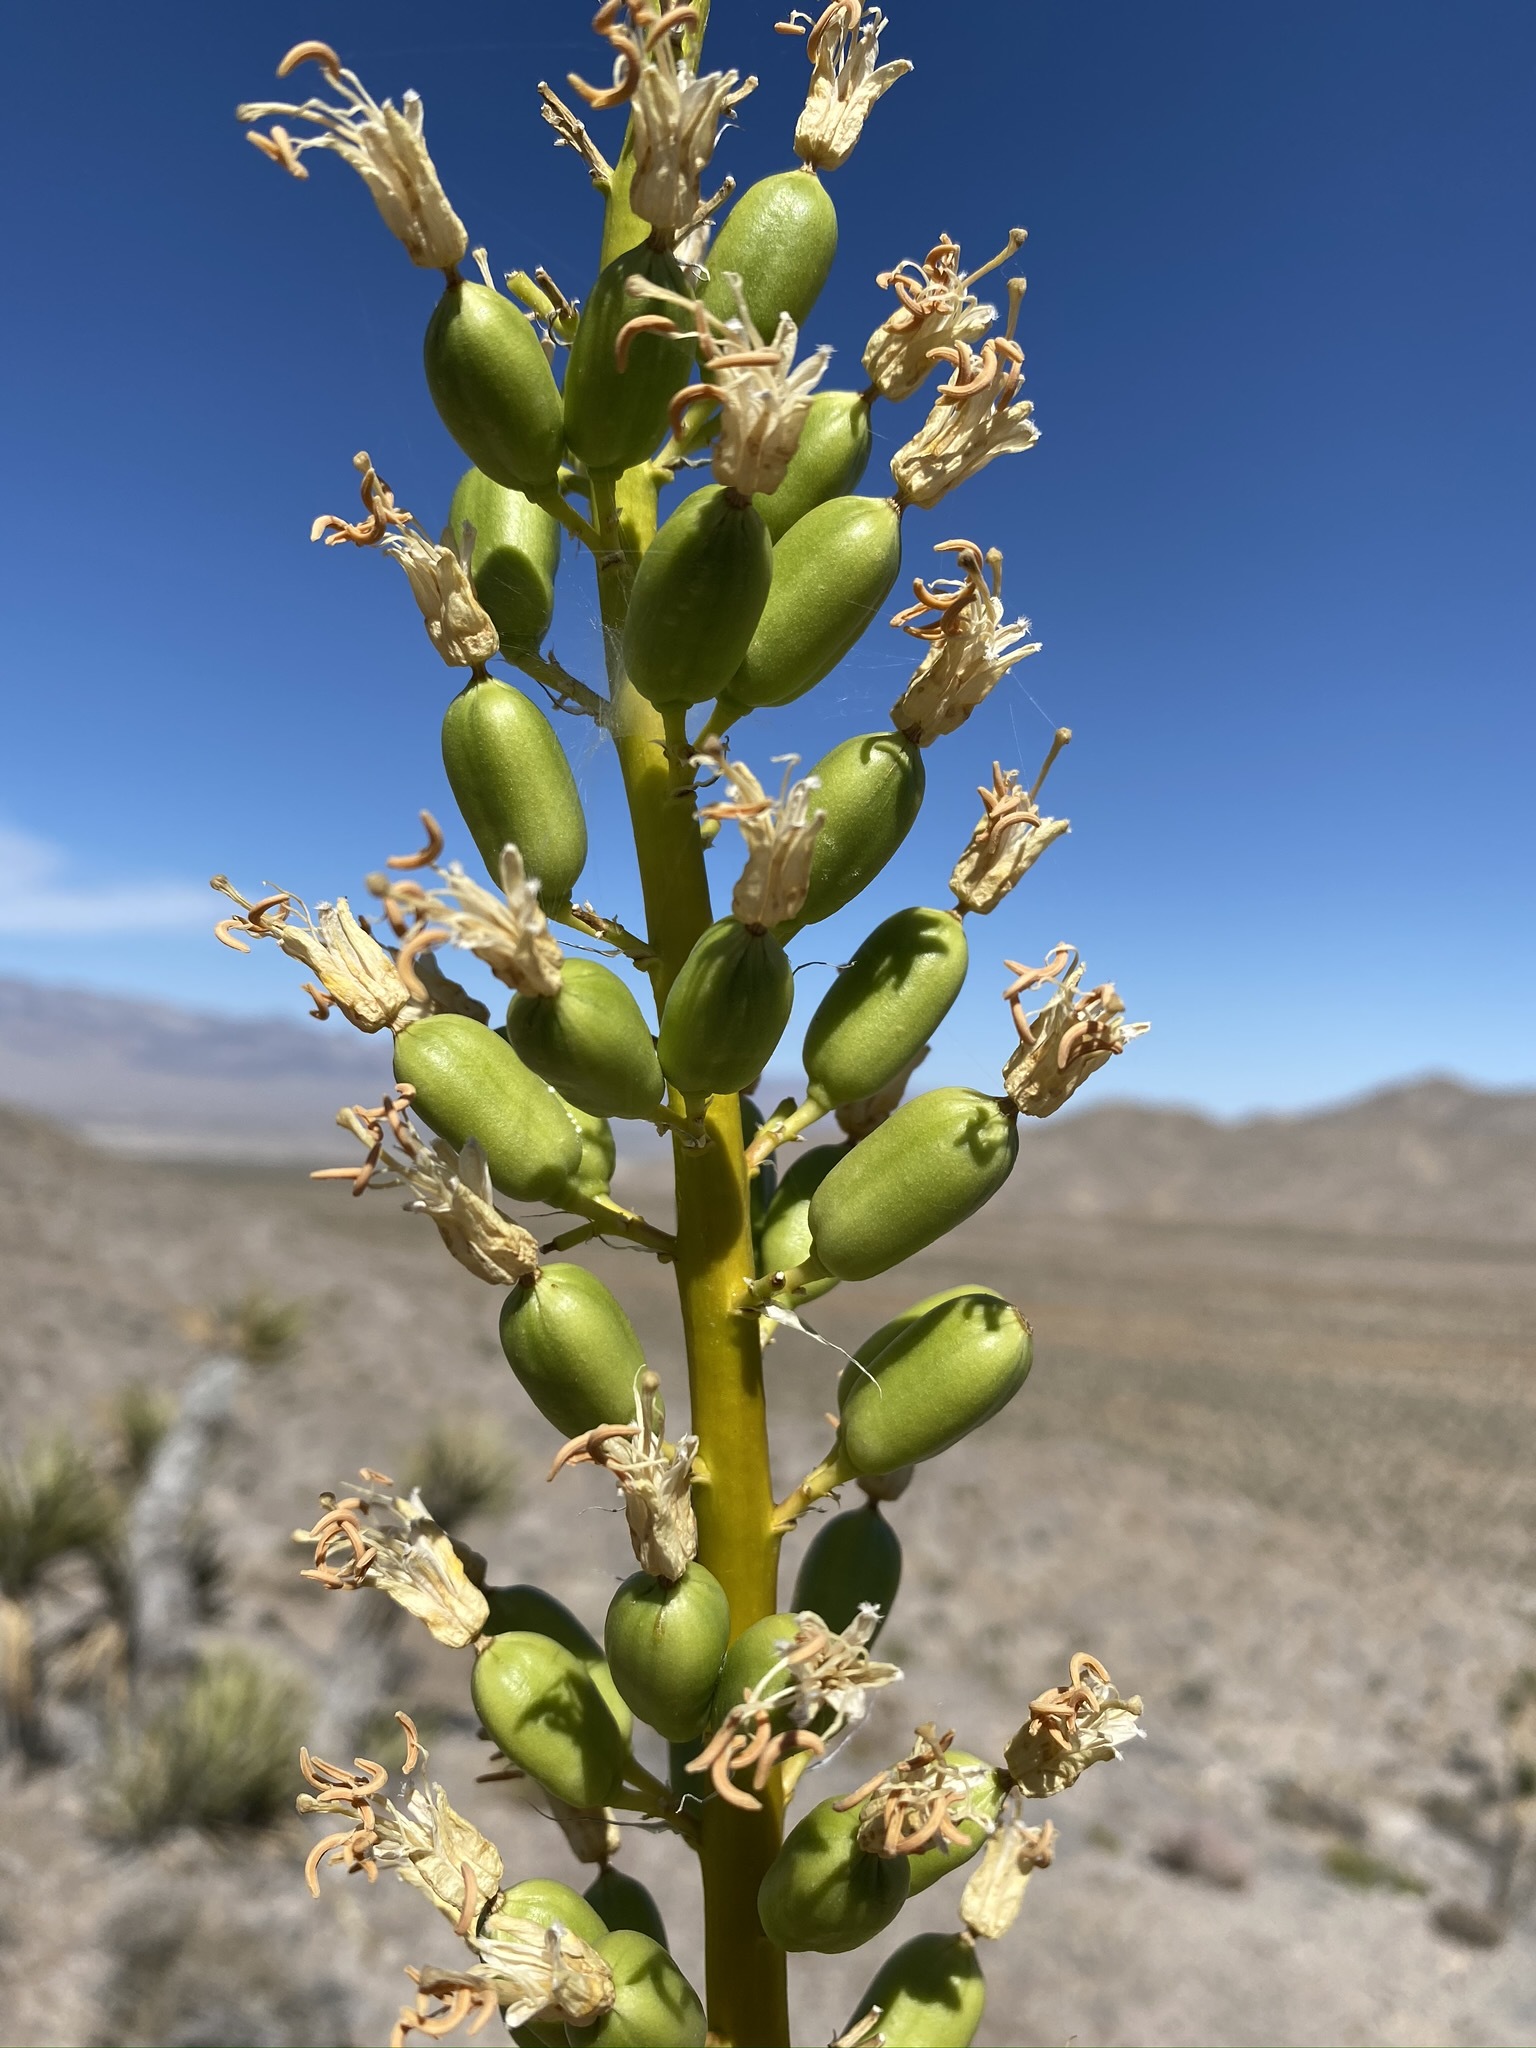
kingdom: Plantae
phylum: Tracheophyta
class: Liliopsida
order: Asparagales
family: Asparagaceae
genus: Agave
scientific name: Agave utahensis
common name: Utah agave
